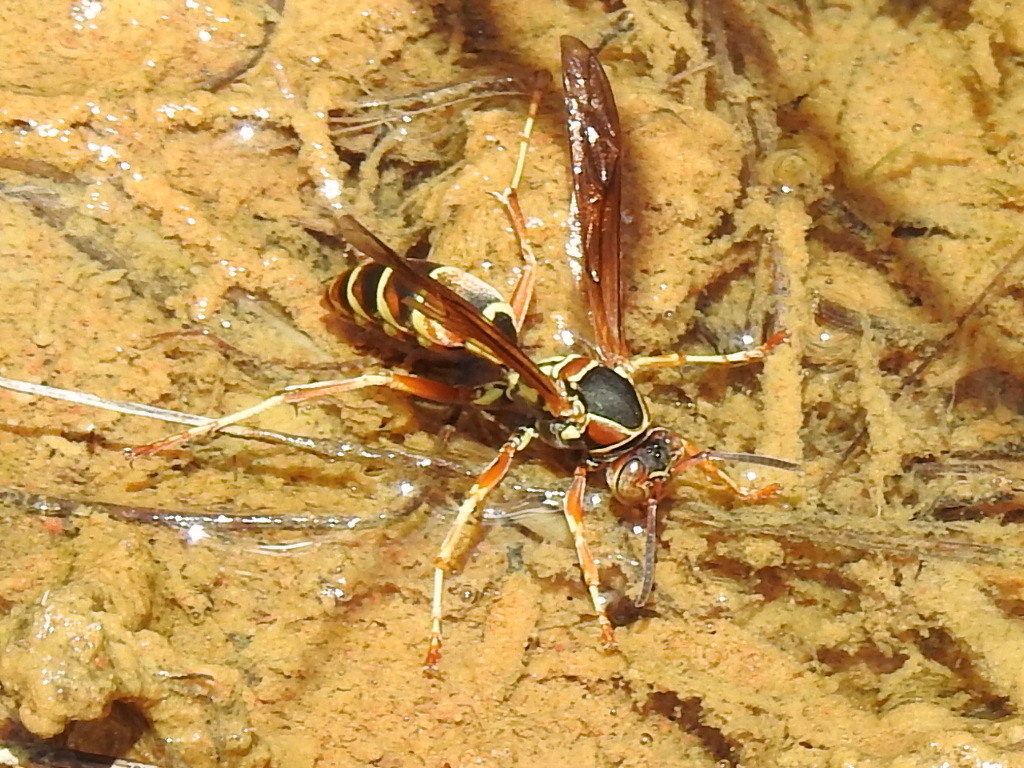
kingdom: Animalia
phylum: Arthropoda
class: Insecta
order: Hymenoptera
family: Eumenidae
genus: Polistes
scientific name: Polistes fuscatus
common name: Dark paper wasp
